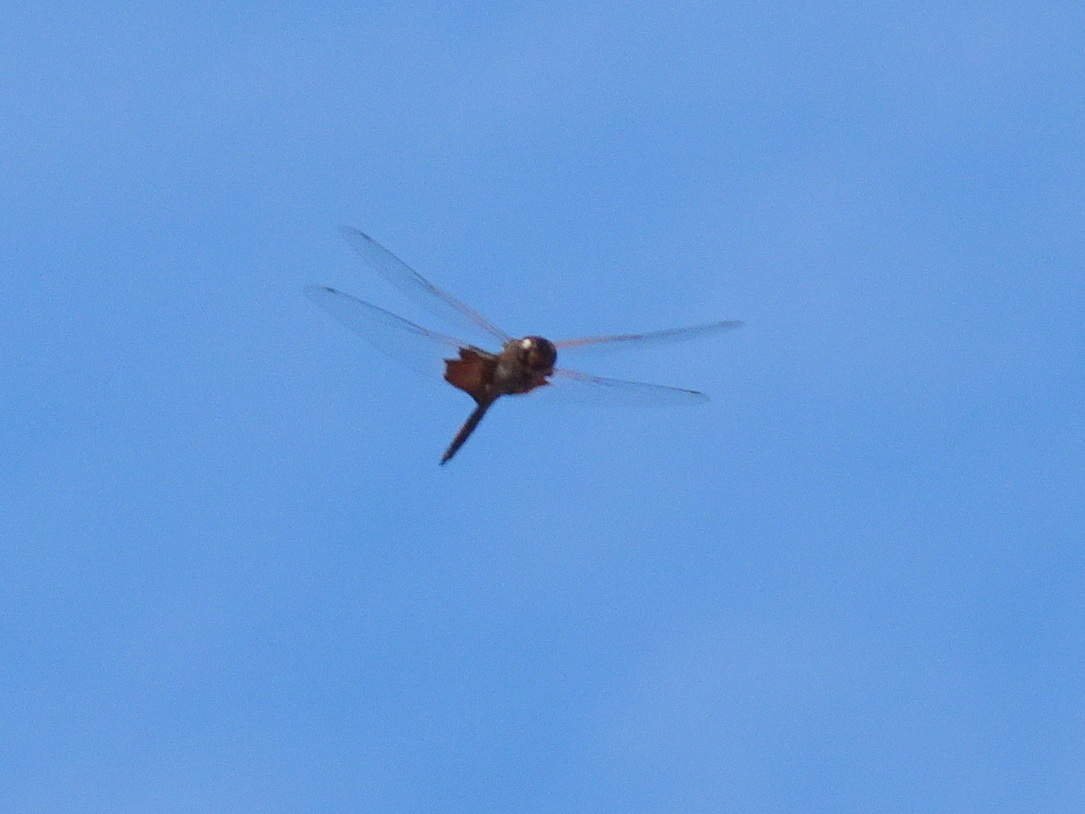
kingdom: Animalia
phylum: Arthropoda
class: Insecta
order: Odonata
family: Libellulidae
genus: Tramea
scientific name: Tramea carolina
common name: Carolina saddlebags
